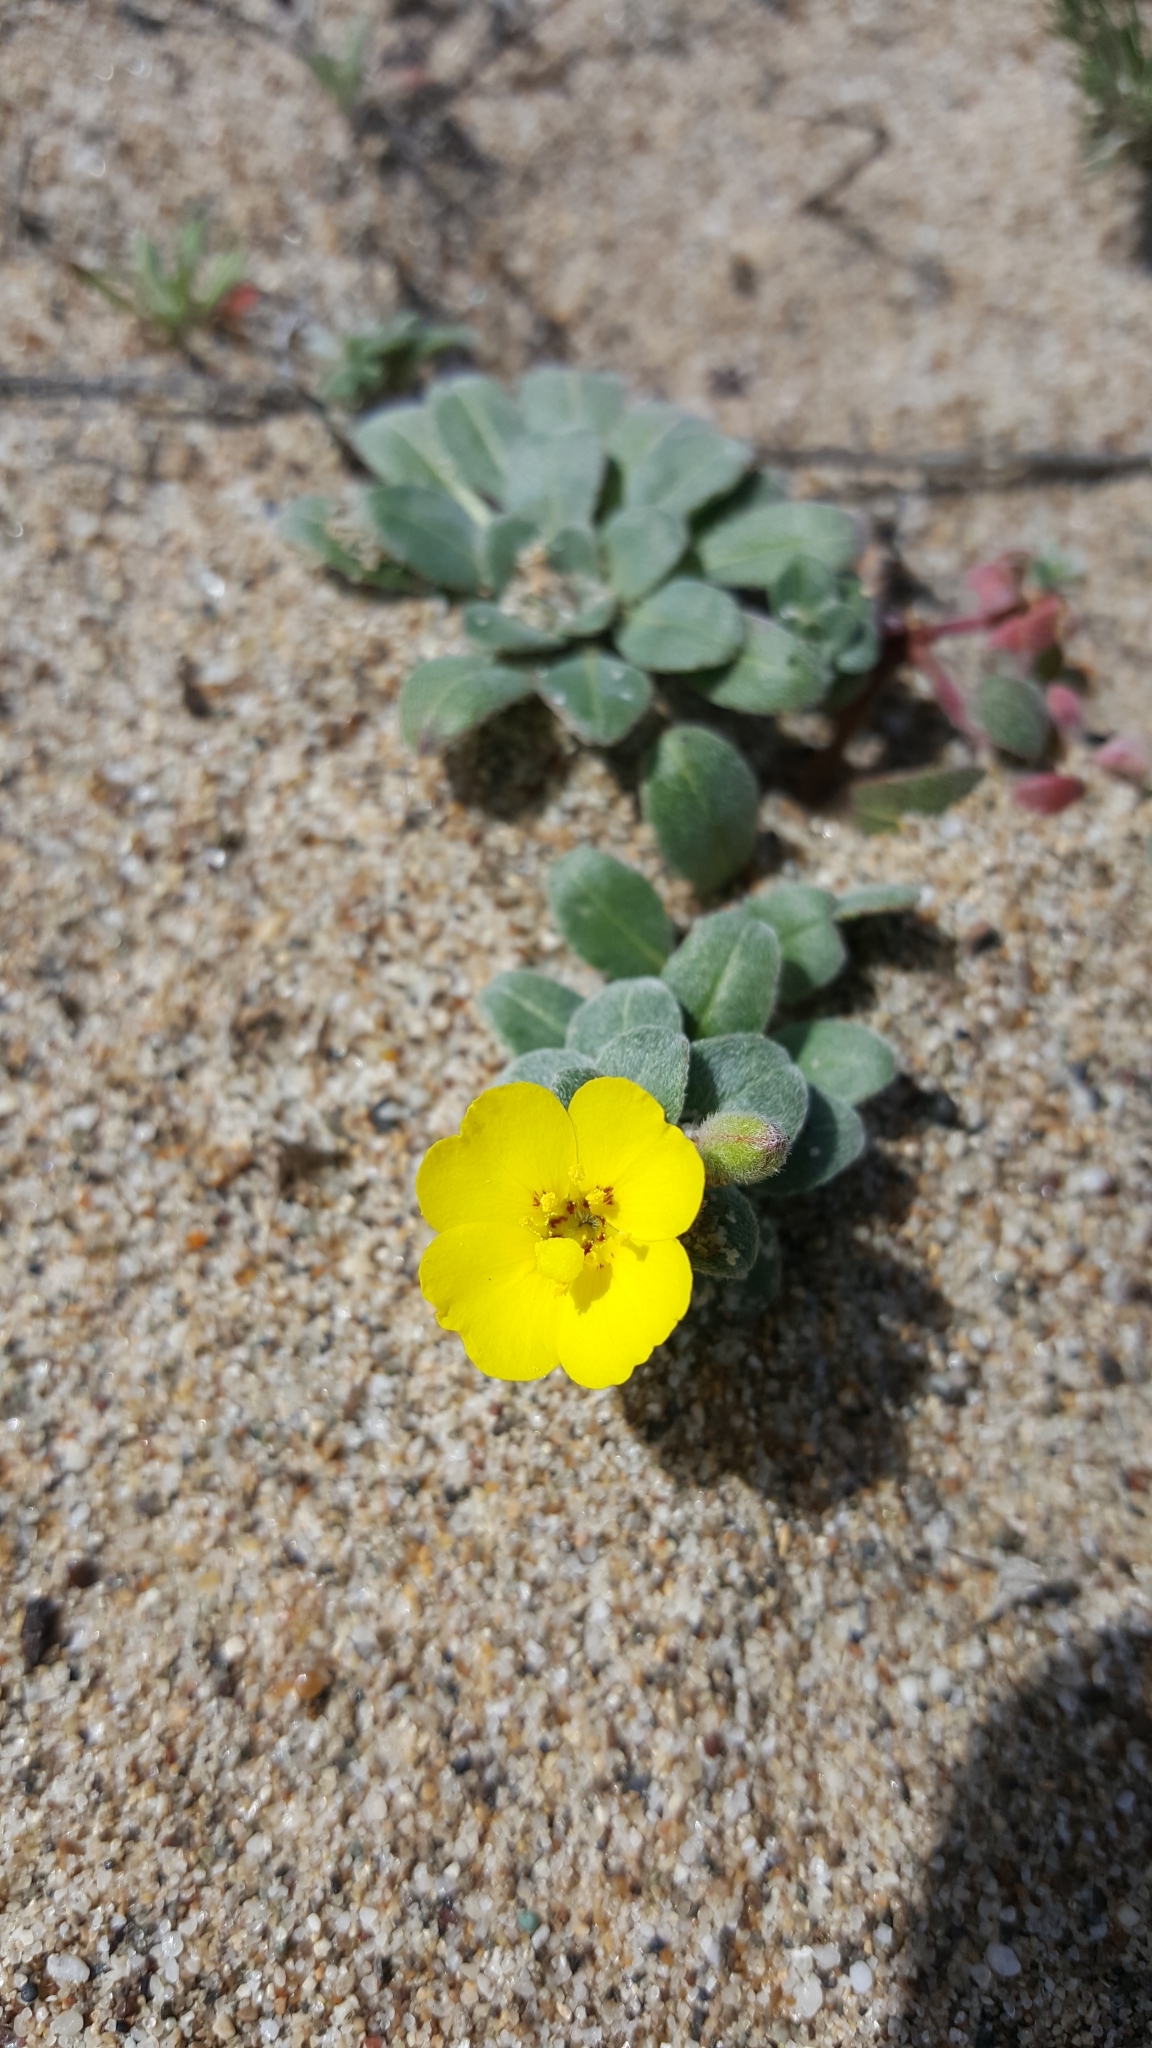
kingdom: Plantae
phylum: Tracheophyta
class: Magnoliopsida
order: Myrtales
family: Onagraceae
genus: Camissoniopsis
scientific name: Camissoniopsis cheiranthifolia
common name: Beach suncup
